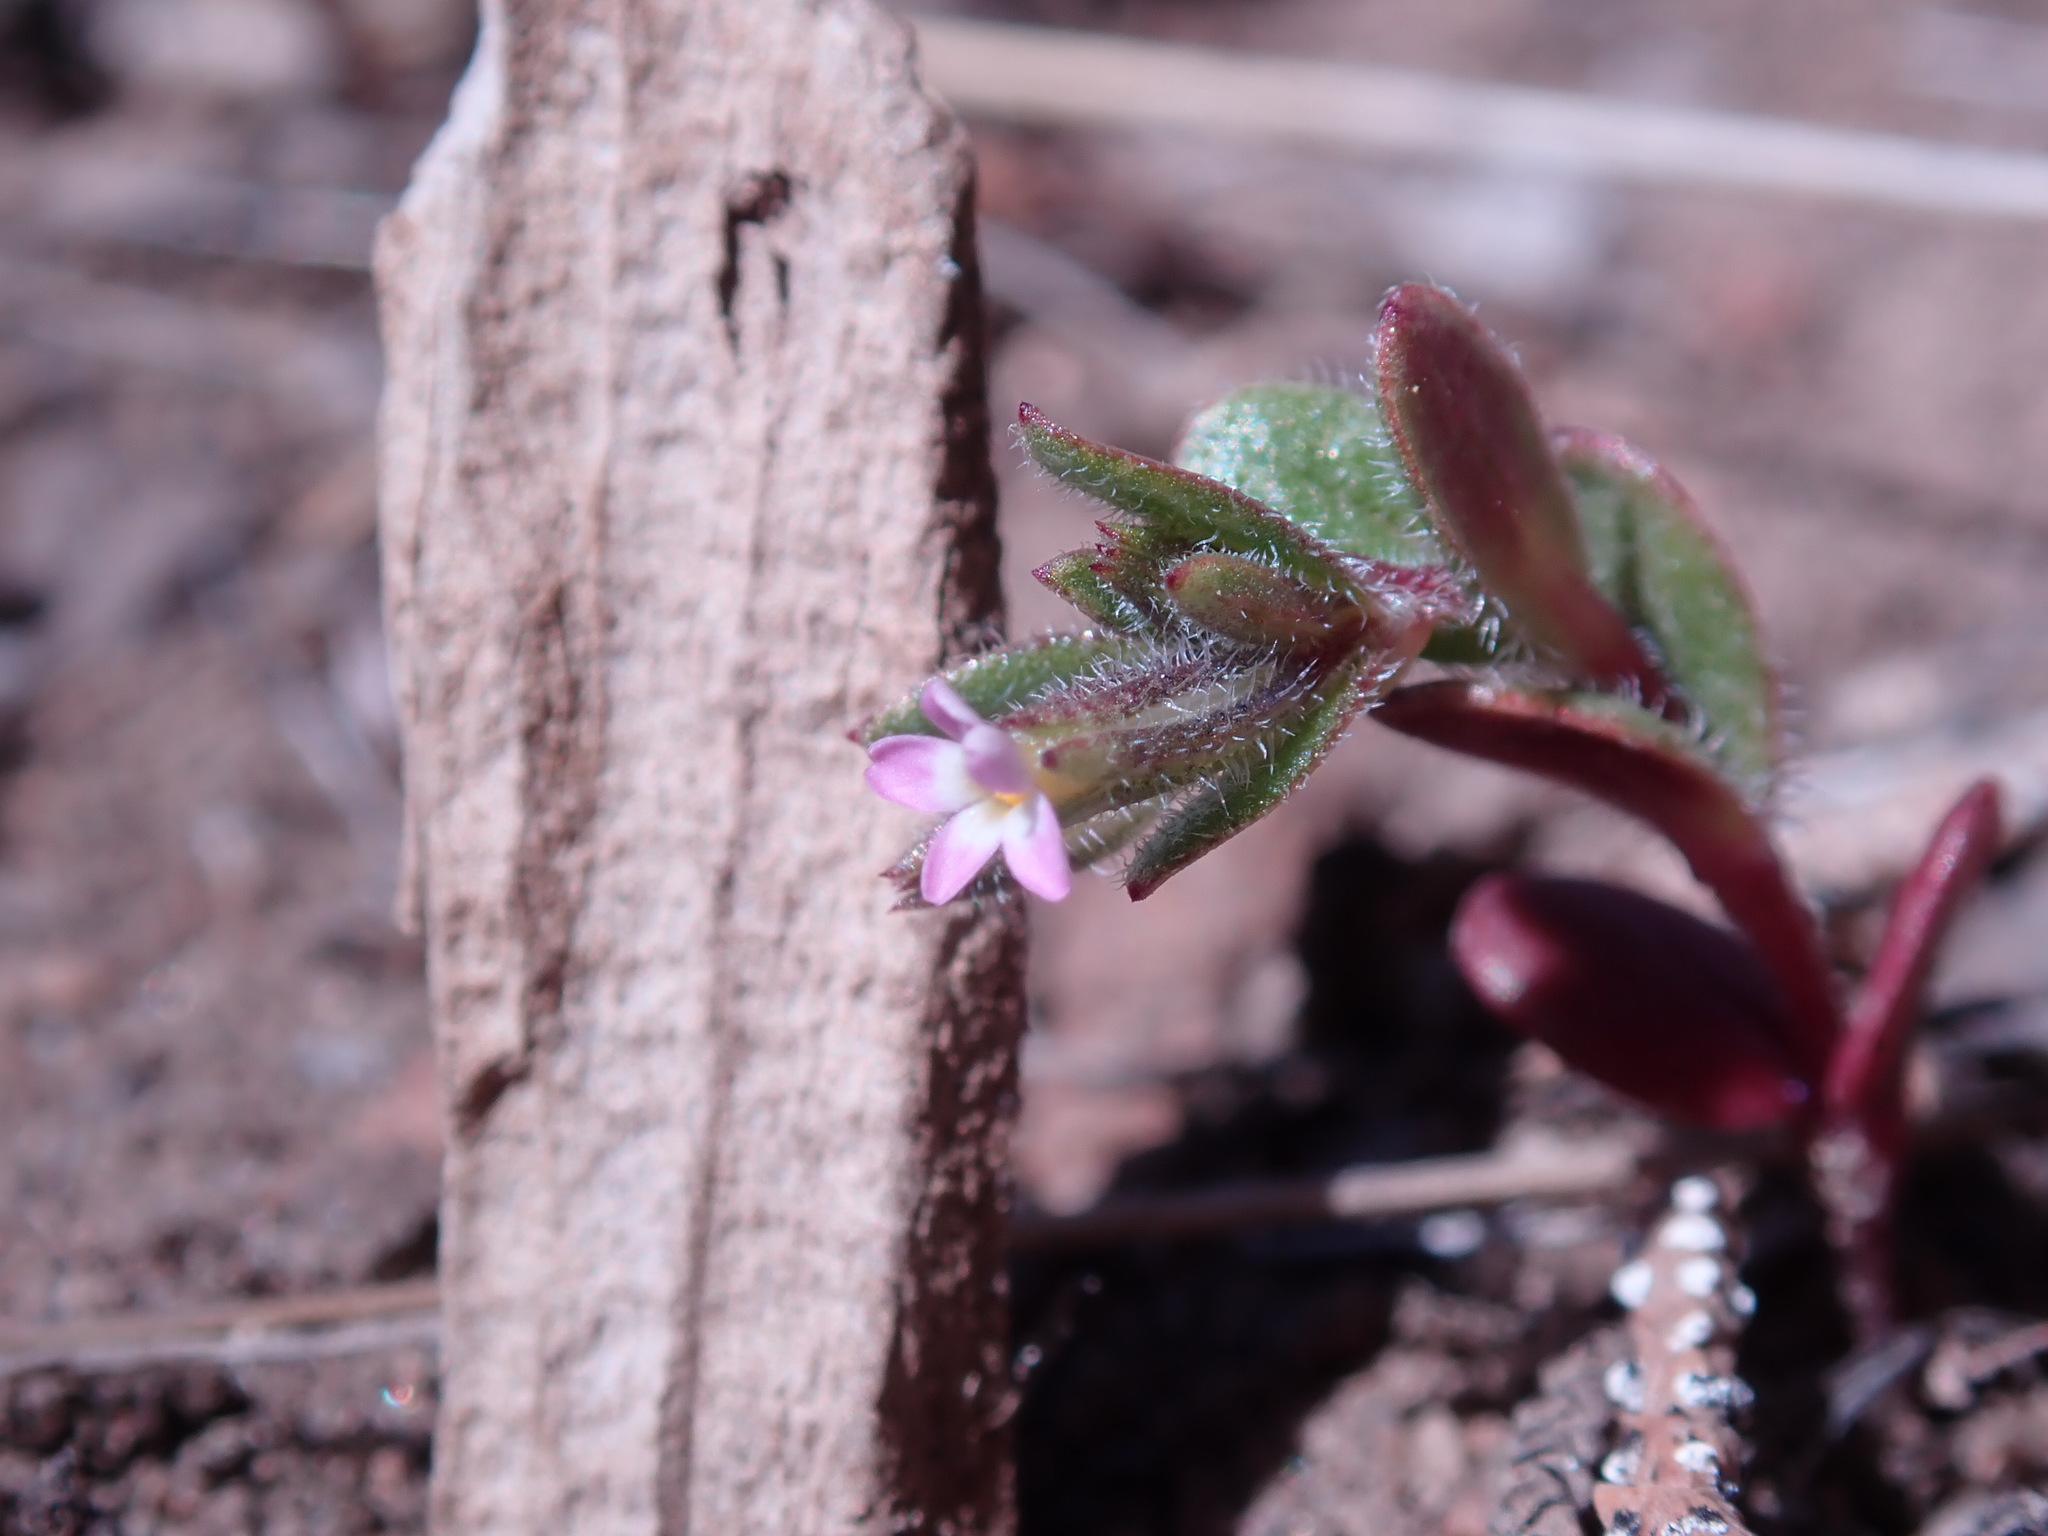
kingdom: Plantae
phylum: Tracheophyta
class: Magnoliopsida
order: Ericales
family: Polemoniaceae
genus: Phlox
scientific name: Phlox gracilis
